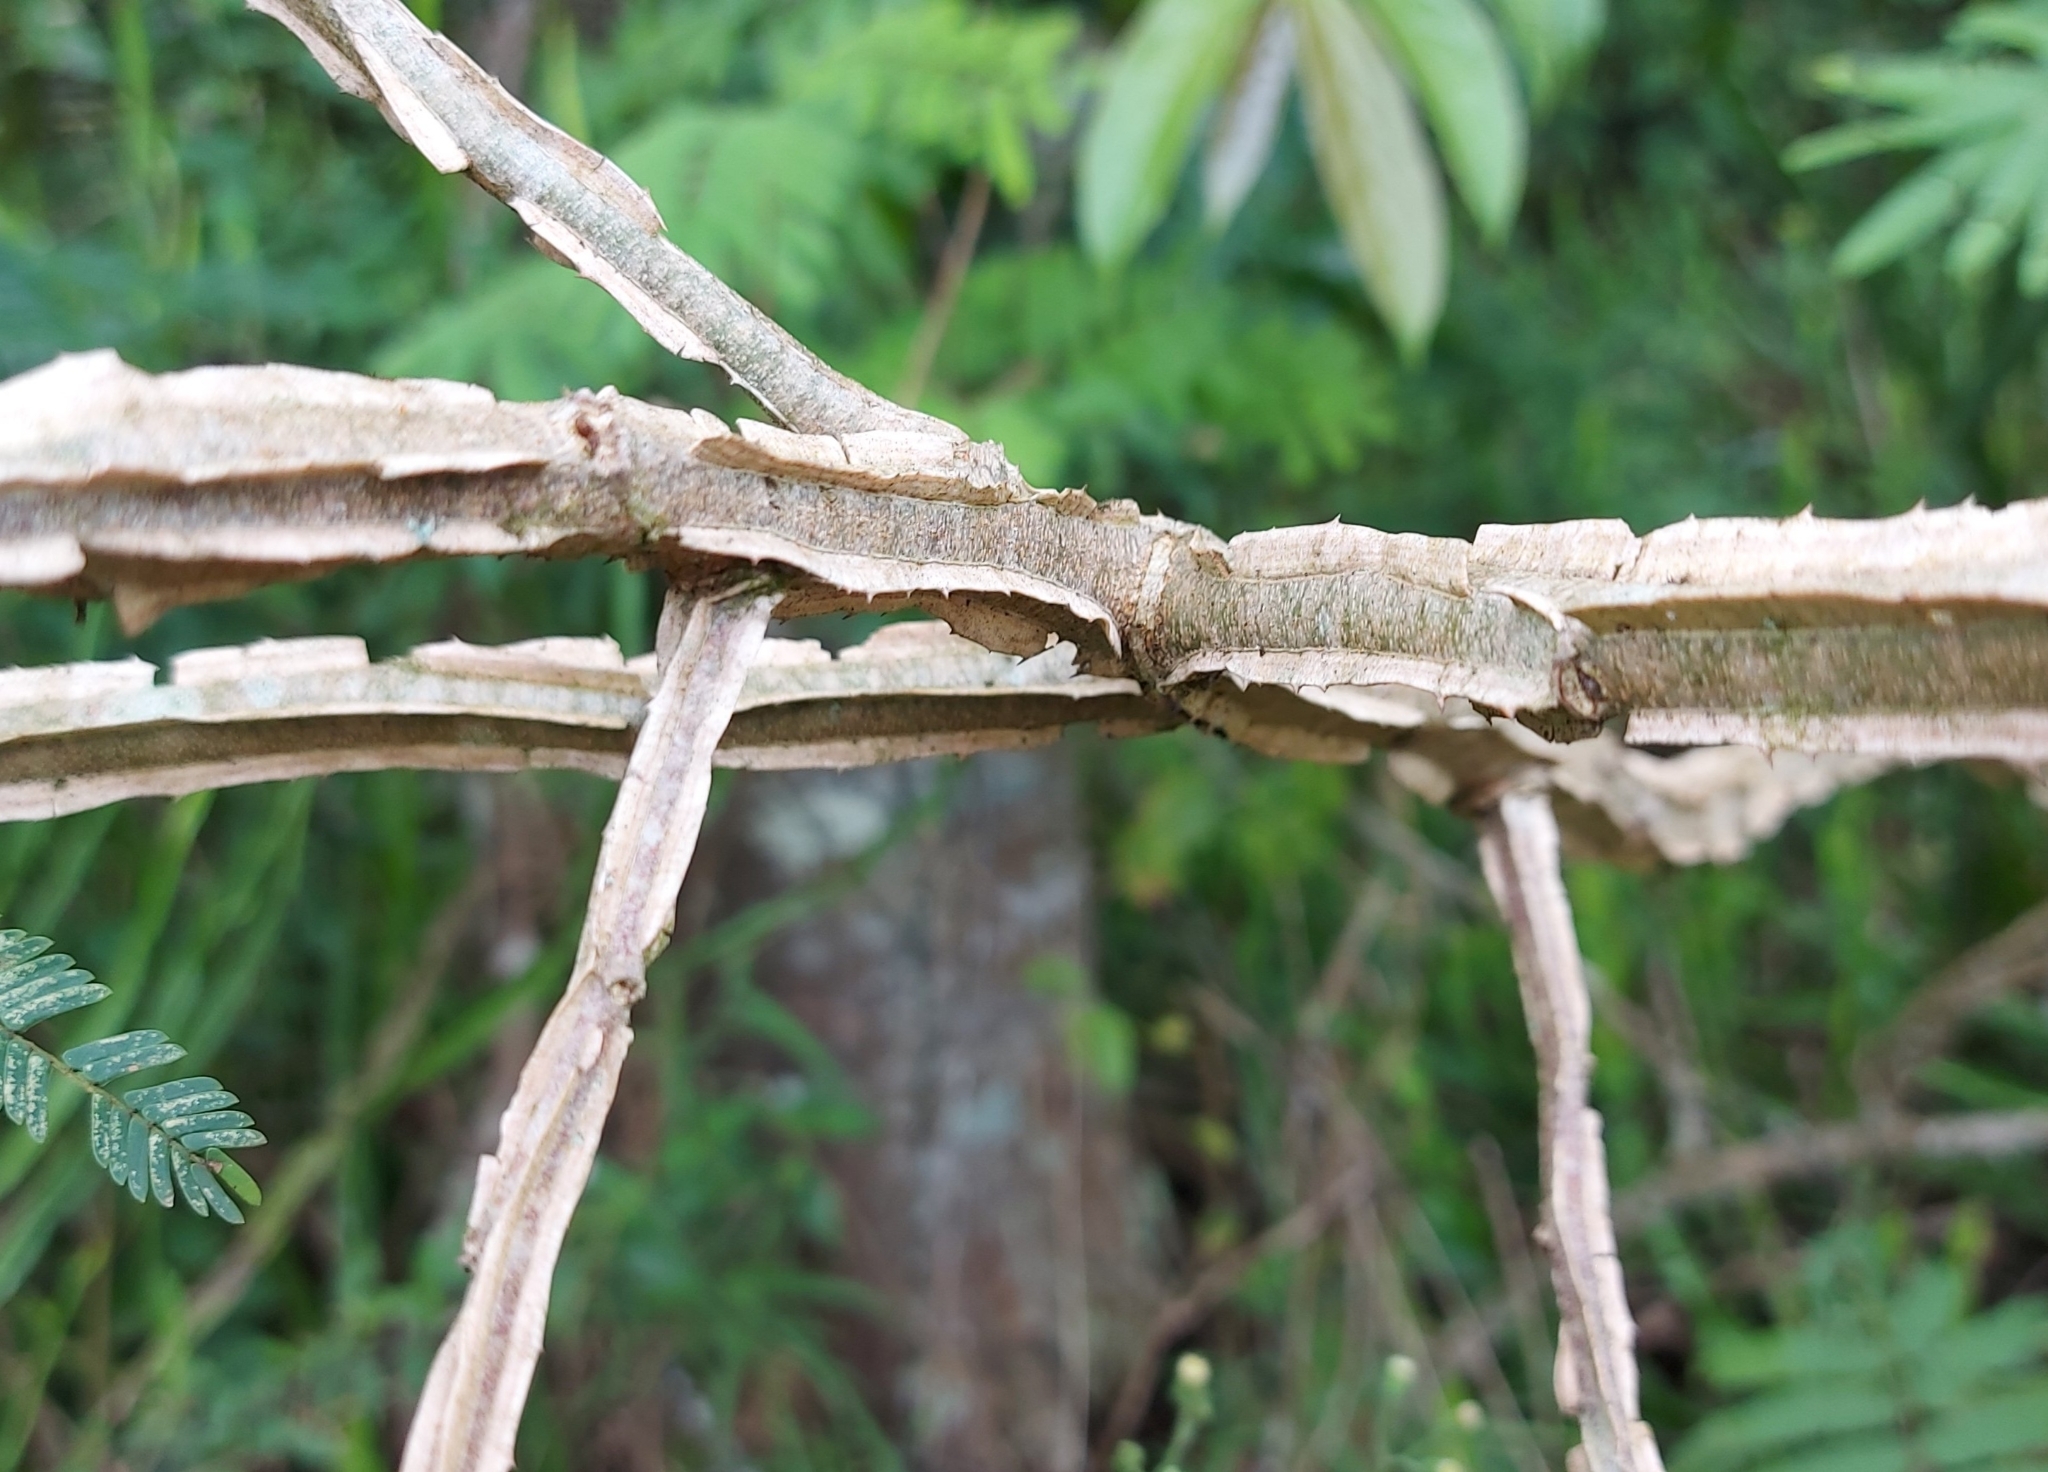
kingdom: Plantae
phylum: Tracheophyta
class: Magnoliopsida
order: Fabales
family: Fabaceae
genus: Piptadenia
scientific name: Piptadenia gonoacantha
